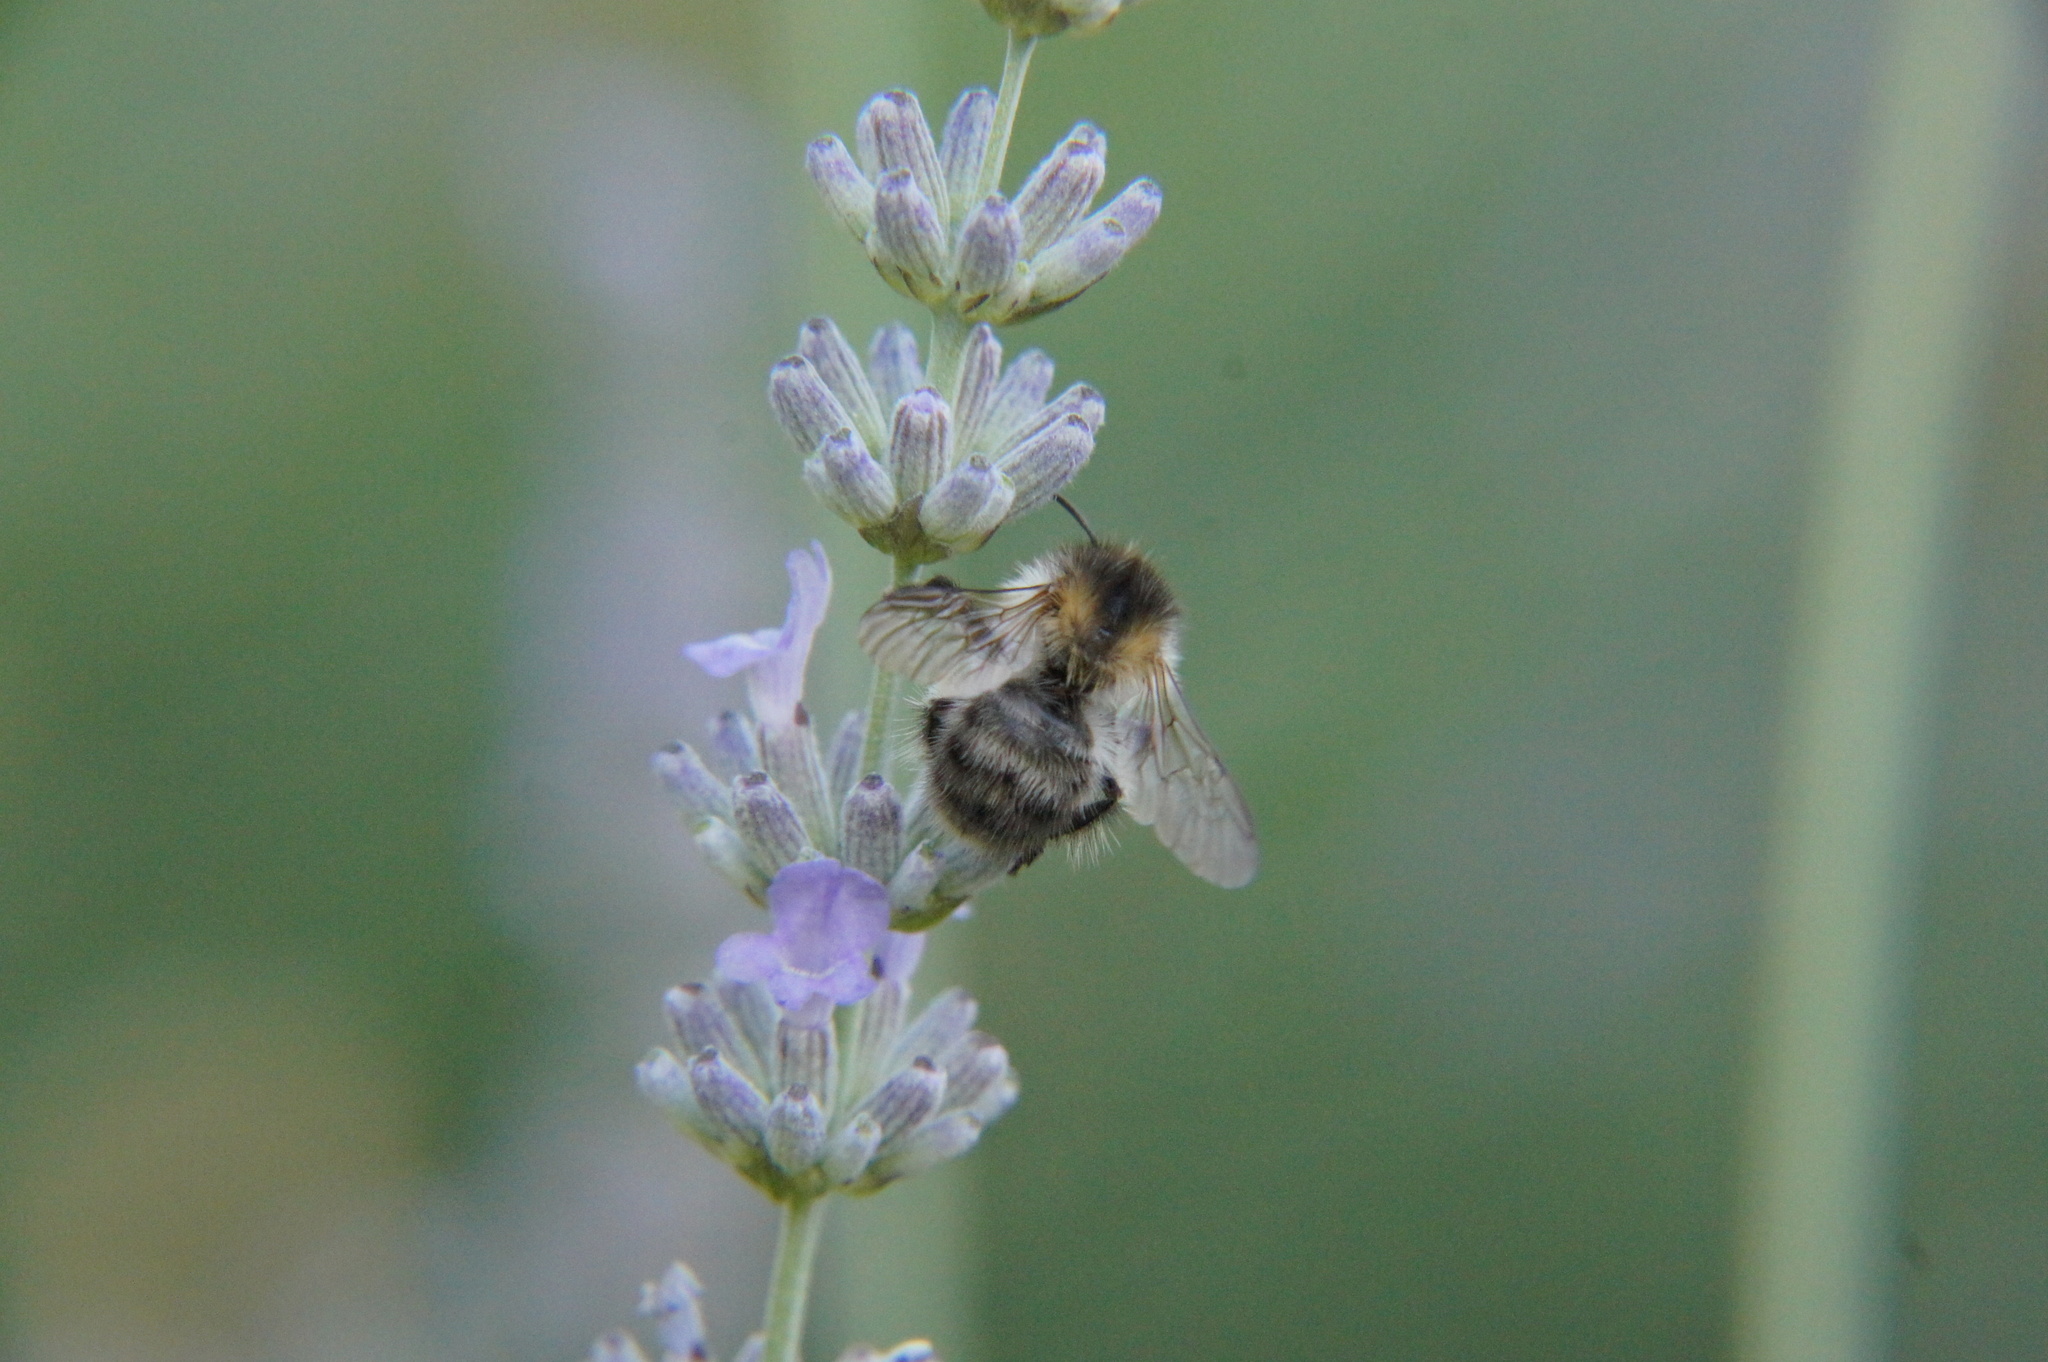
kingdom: Animalia
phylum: Arthropoda
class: Insecta
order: Hymenoptera
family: Apidae
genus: Bombus
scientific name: Bombus pascuorum
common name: Common carder bee
